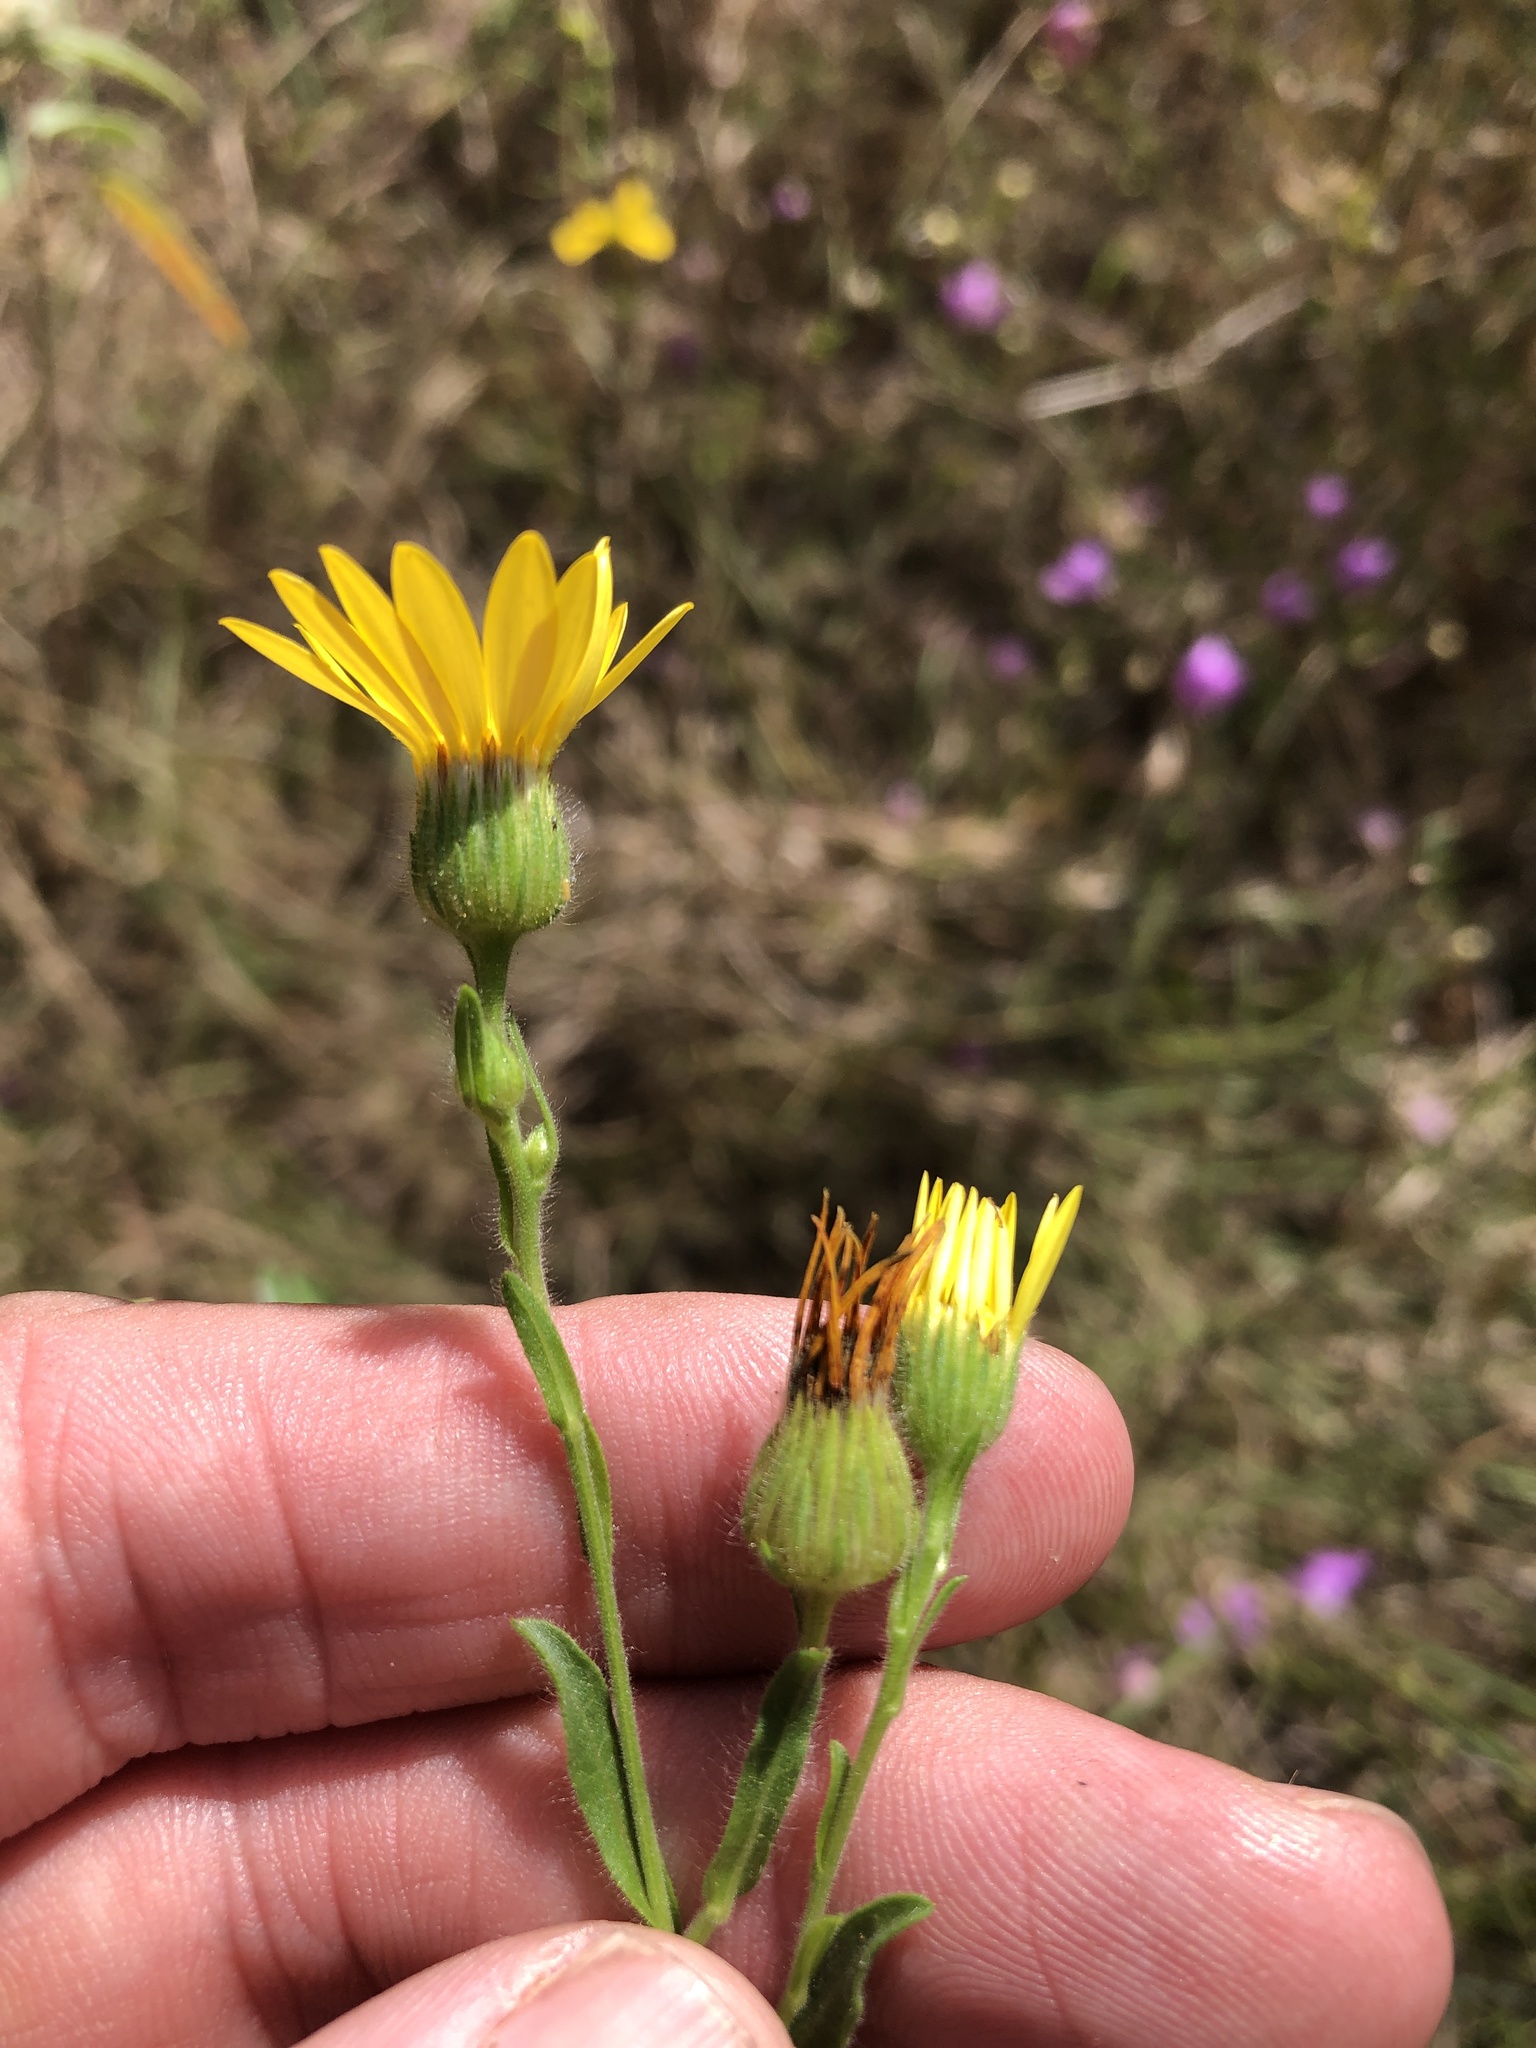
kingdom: Plantae
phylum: Tracheophyta
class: Magnoliopsida
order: Asterales
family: Asteraceae
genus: Bradburia
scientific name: Bradburia pilosa
